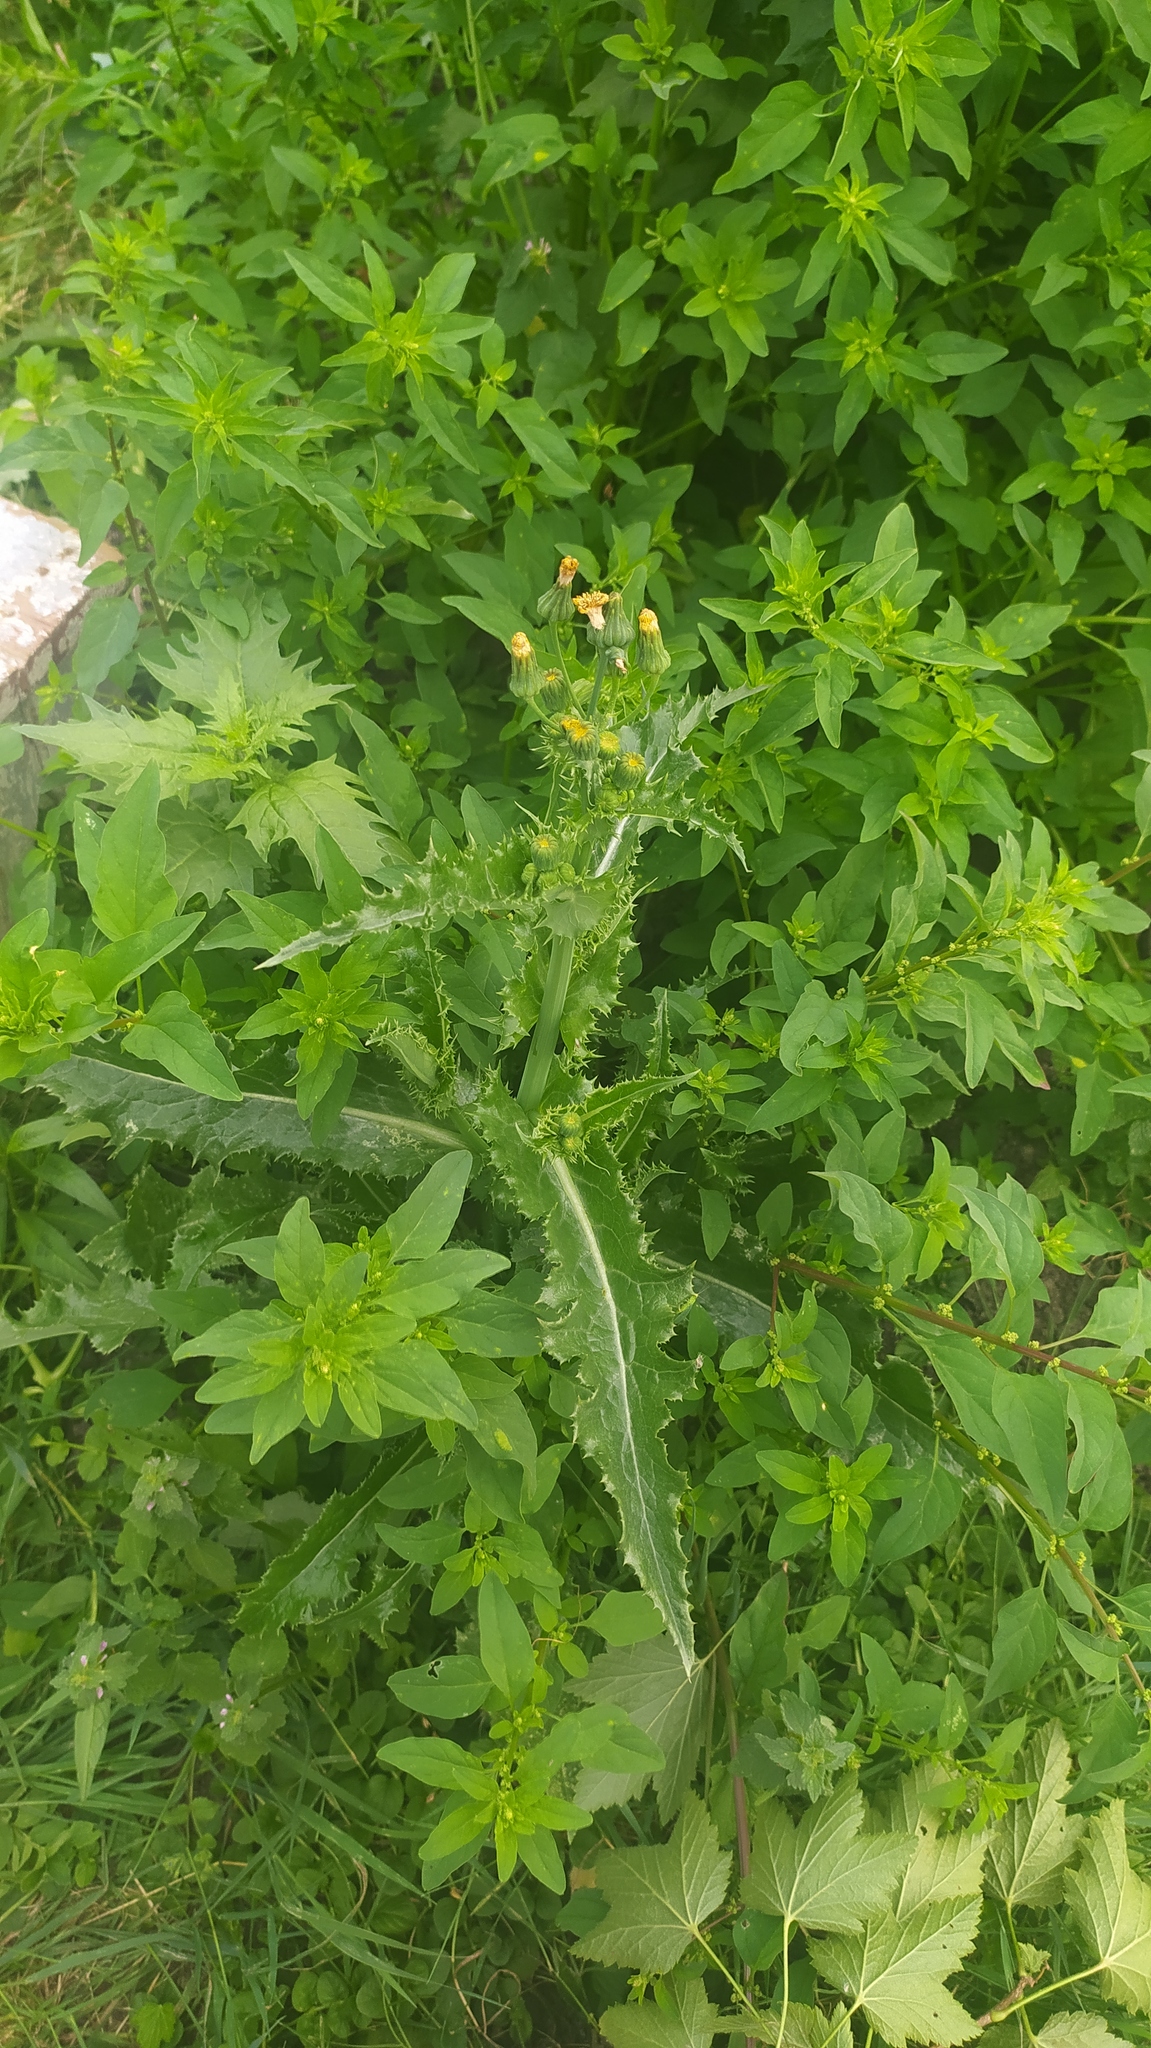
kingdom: Plantae
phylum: Tracheophyta
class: Magnoliopsida
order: Asterales
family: Asteraceae
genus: Sonchus
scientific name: Sonchus asper
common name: Prickly sow-thistle
